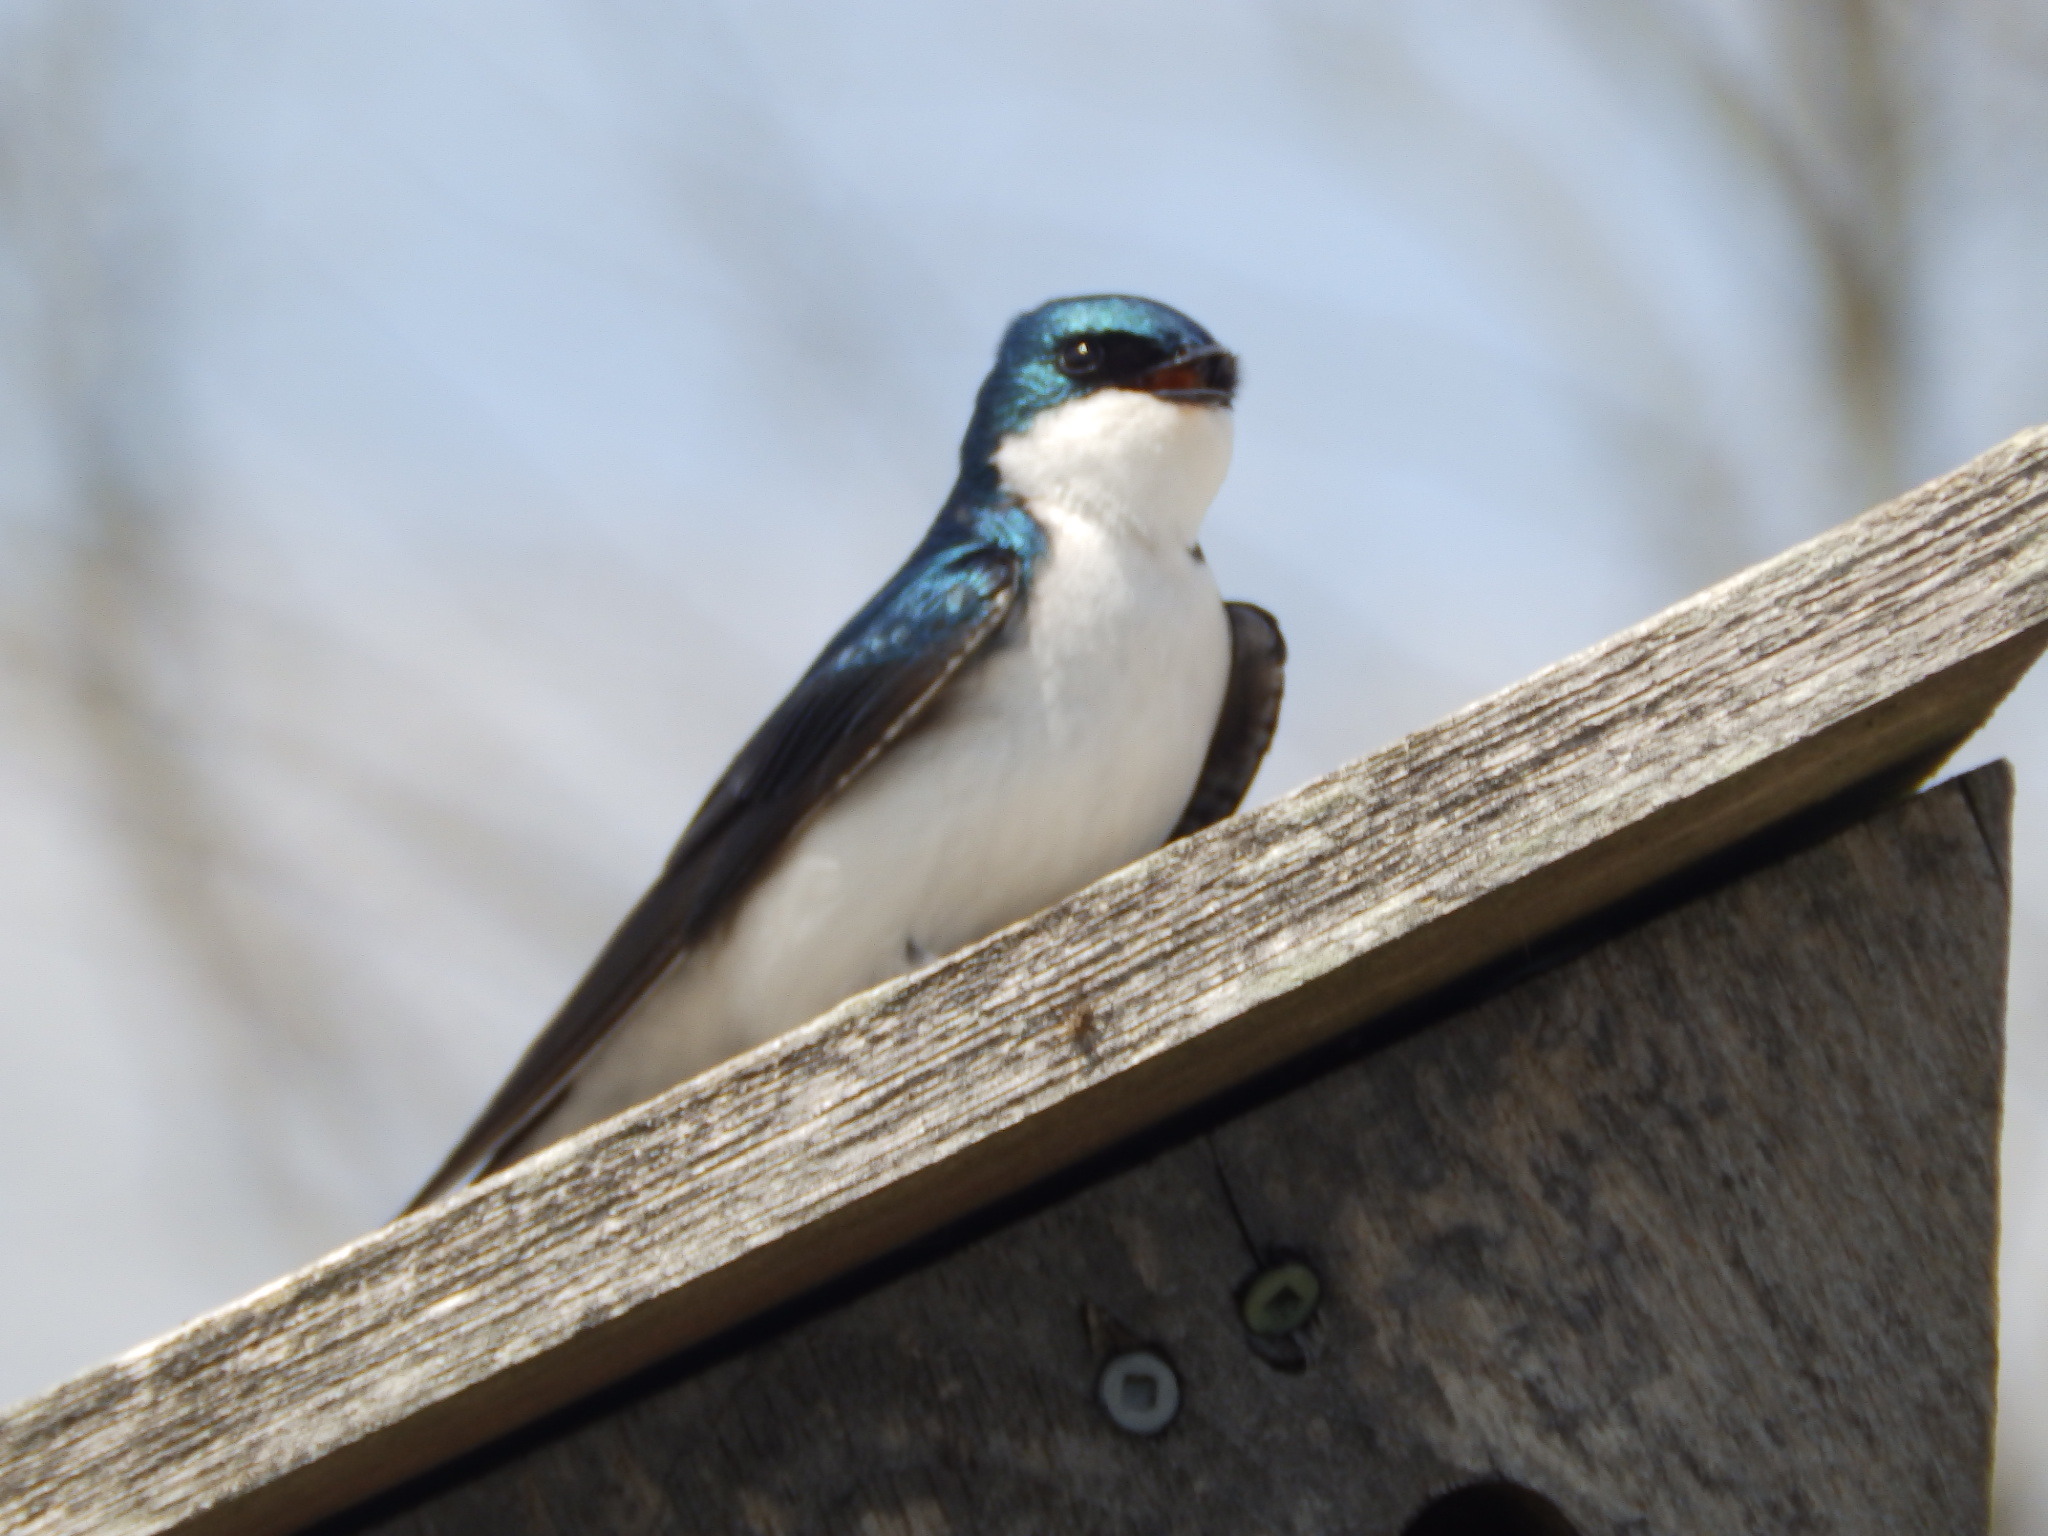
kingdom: Animalia
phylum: Chordata
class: Aves
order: Passeriformes
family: Hirundinidae
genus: Tachycineta
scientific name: Tachycineta bicolor
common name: Tree swallow
